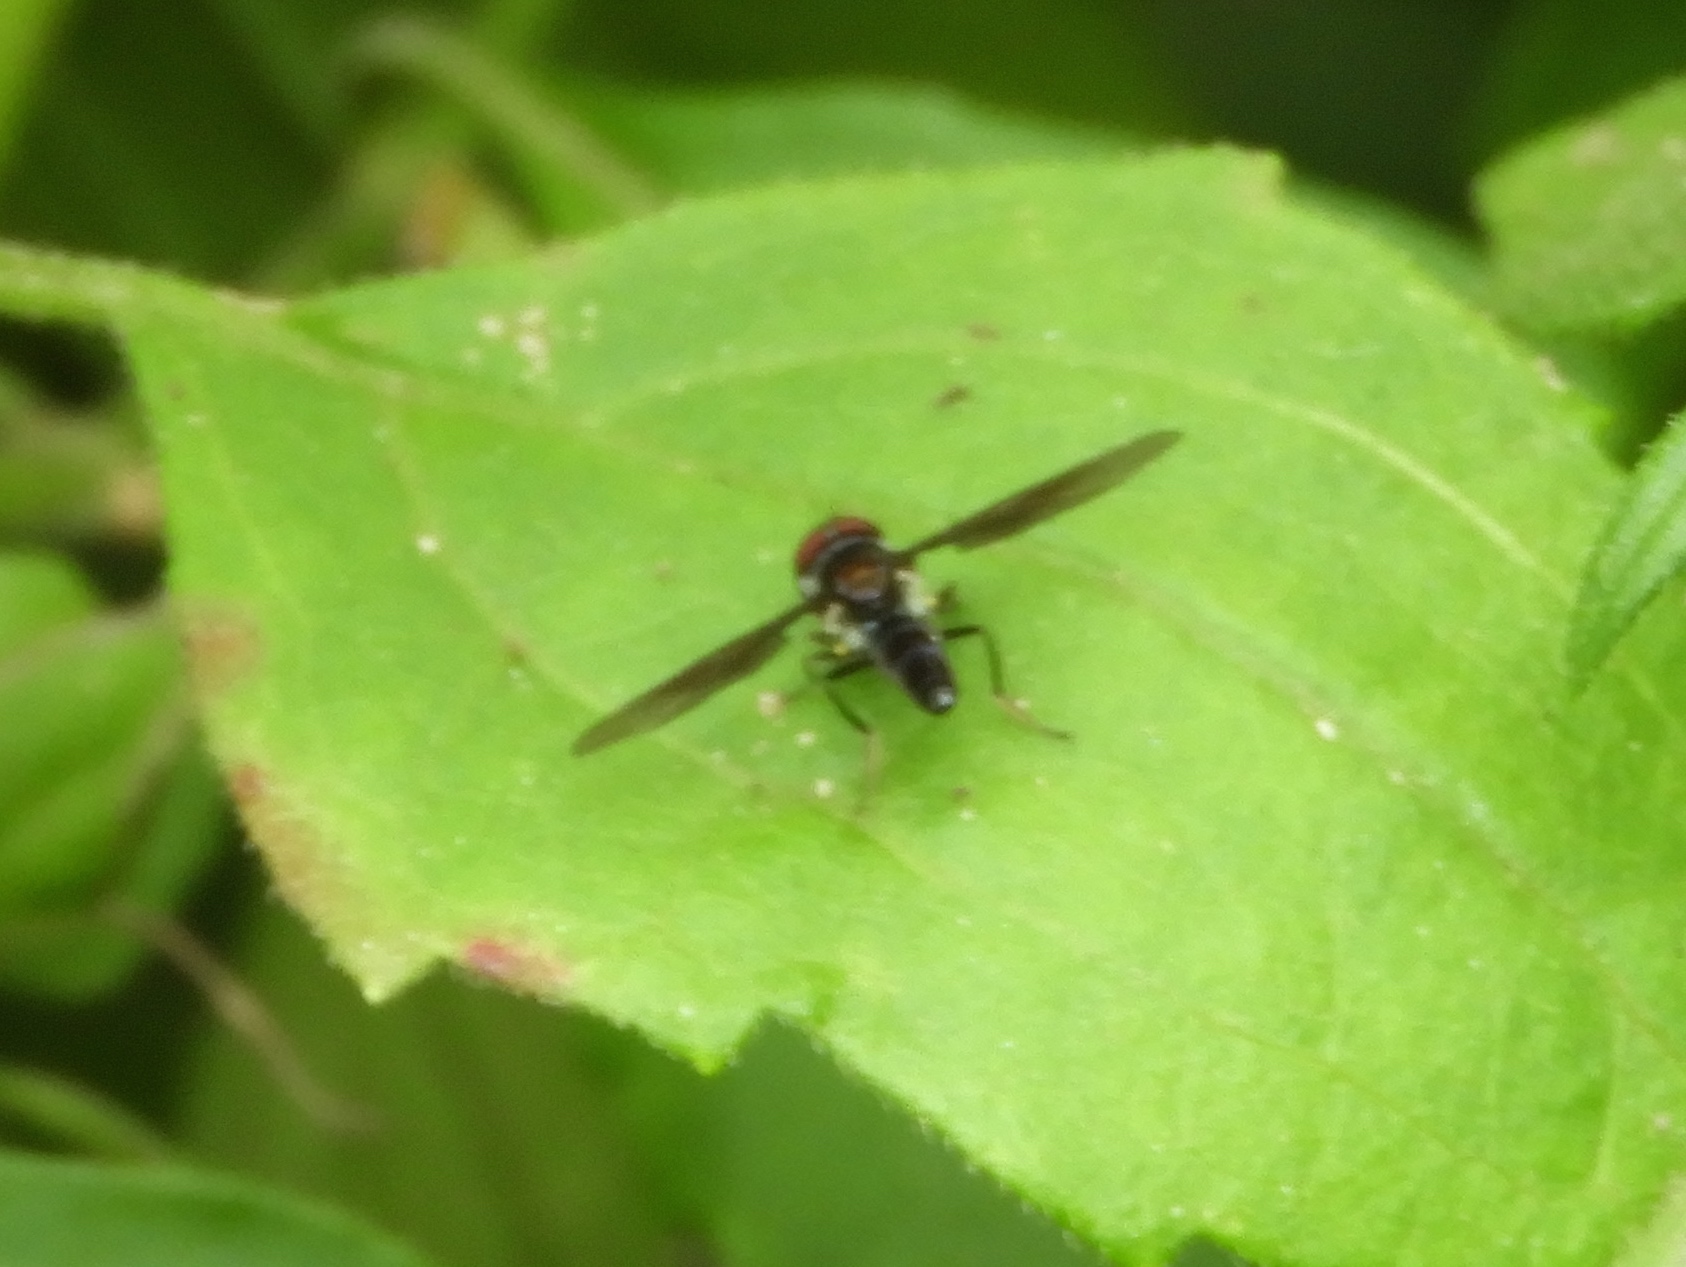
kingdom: Animalia
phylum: Arthropoda
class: Insecta
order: Diptera
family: Syrphidae
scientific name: Syrphidae
